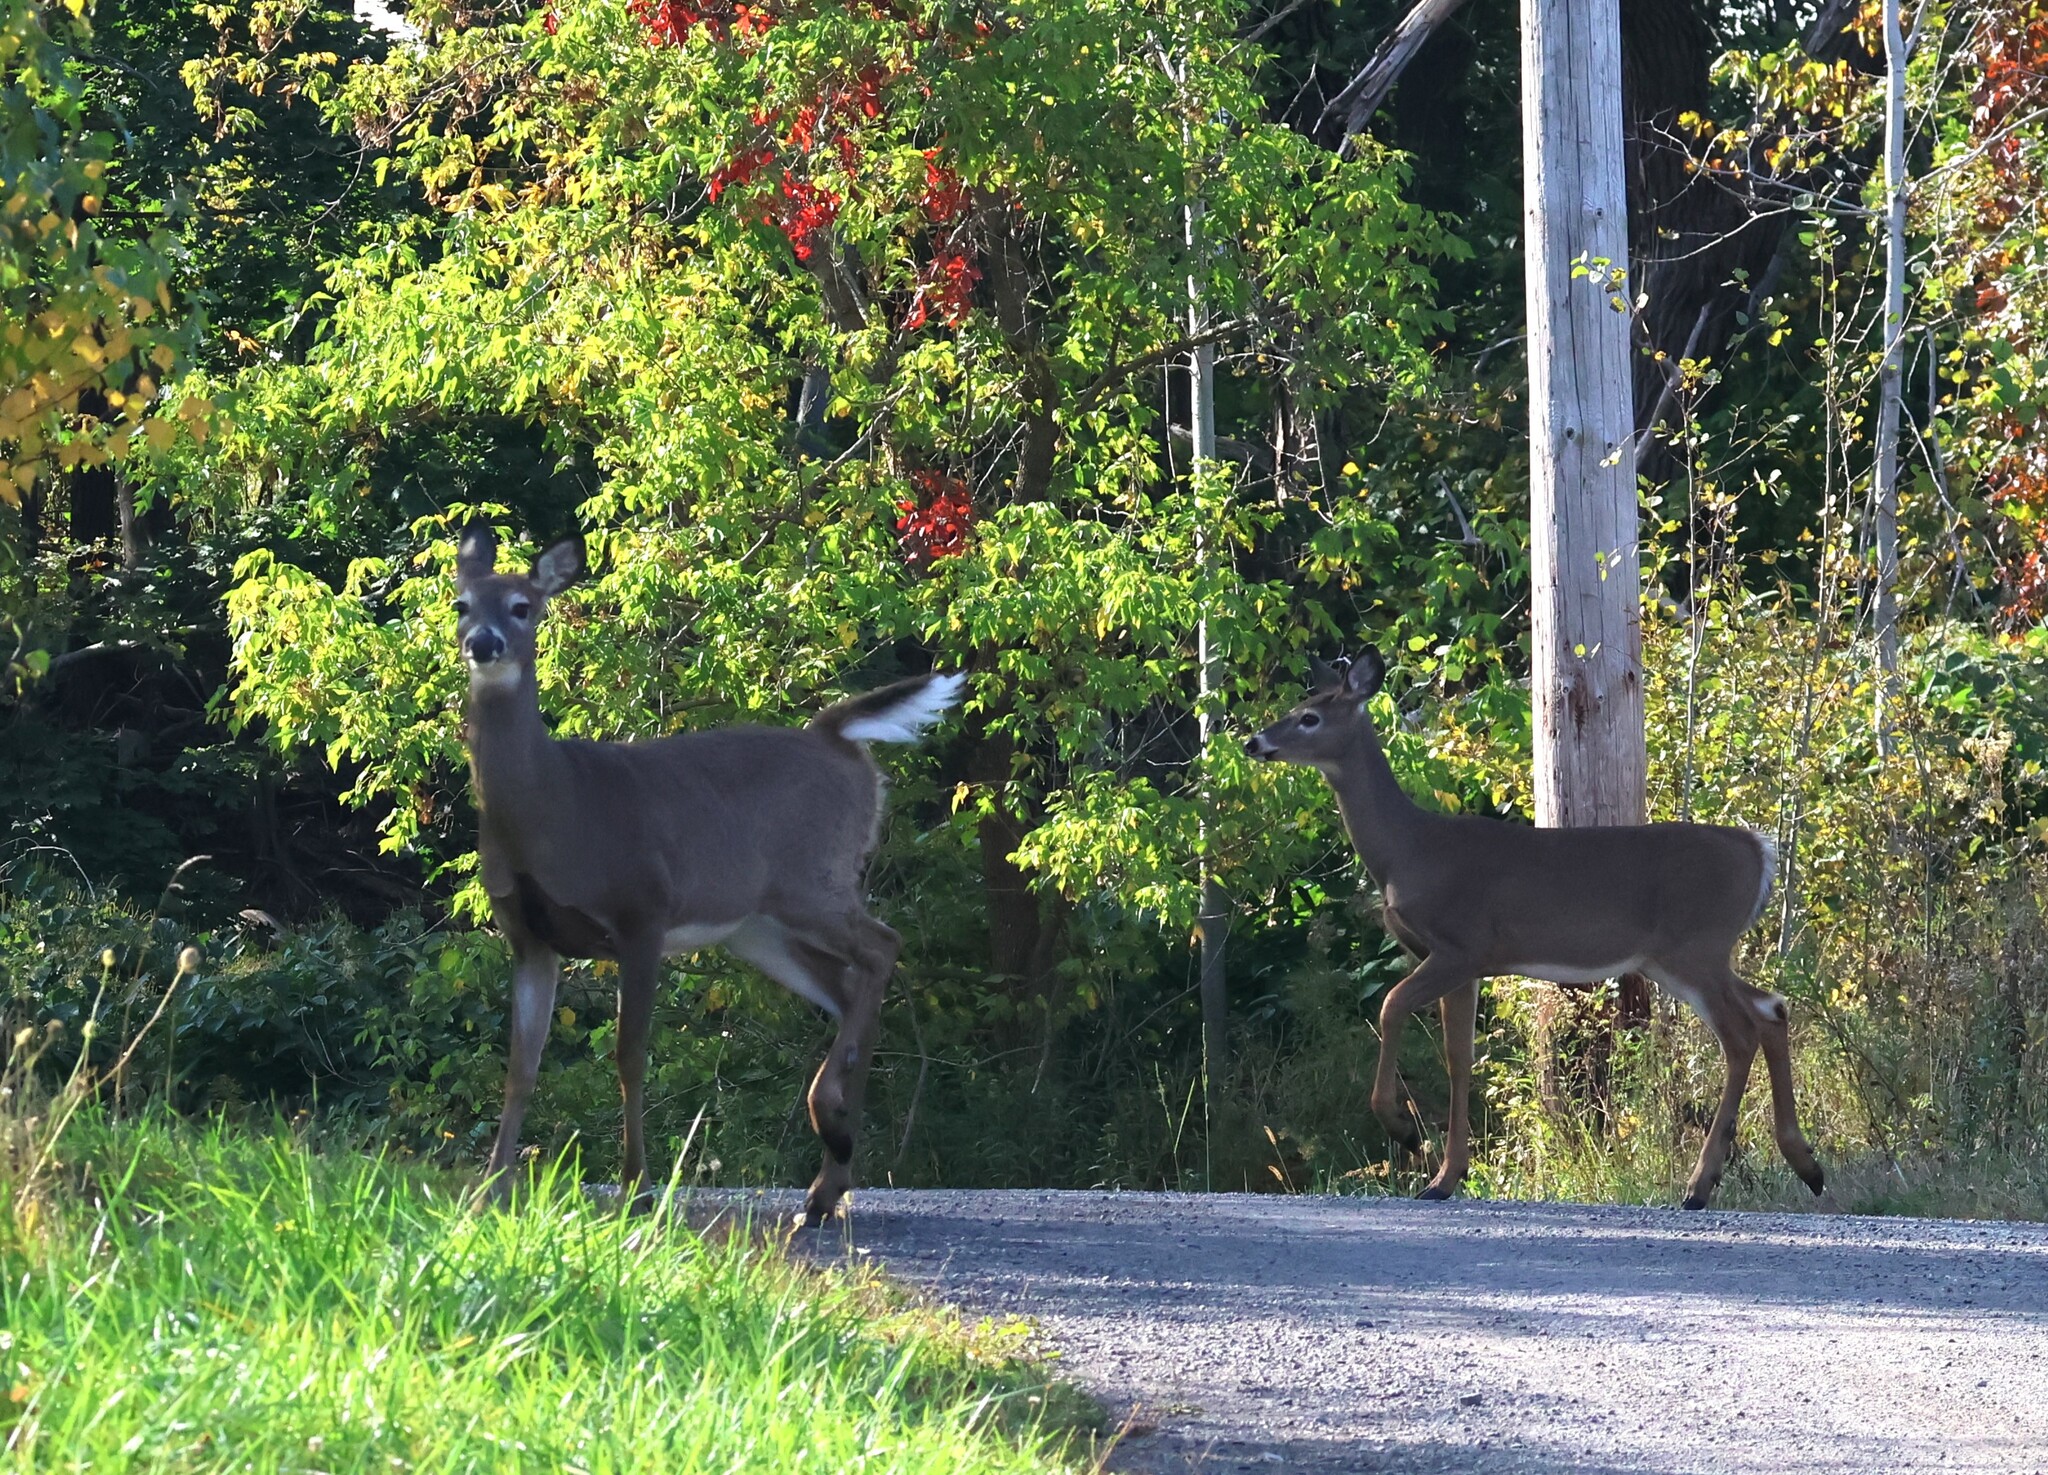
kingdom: Animalia
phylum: Chordata
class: Mammalia
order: Artiodactyla
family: Cervidae
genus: Odocoileus
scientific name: Odocoileus virginianus
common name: White-tailed deer
